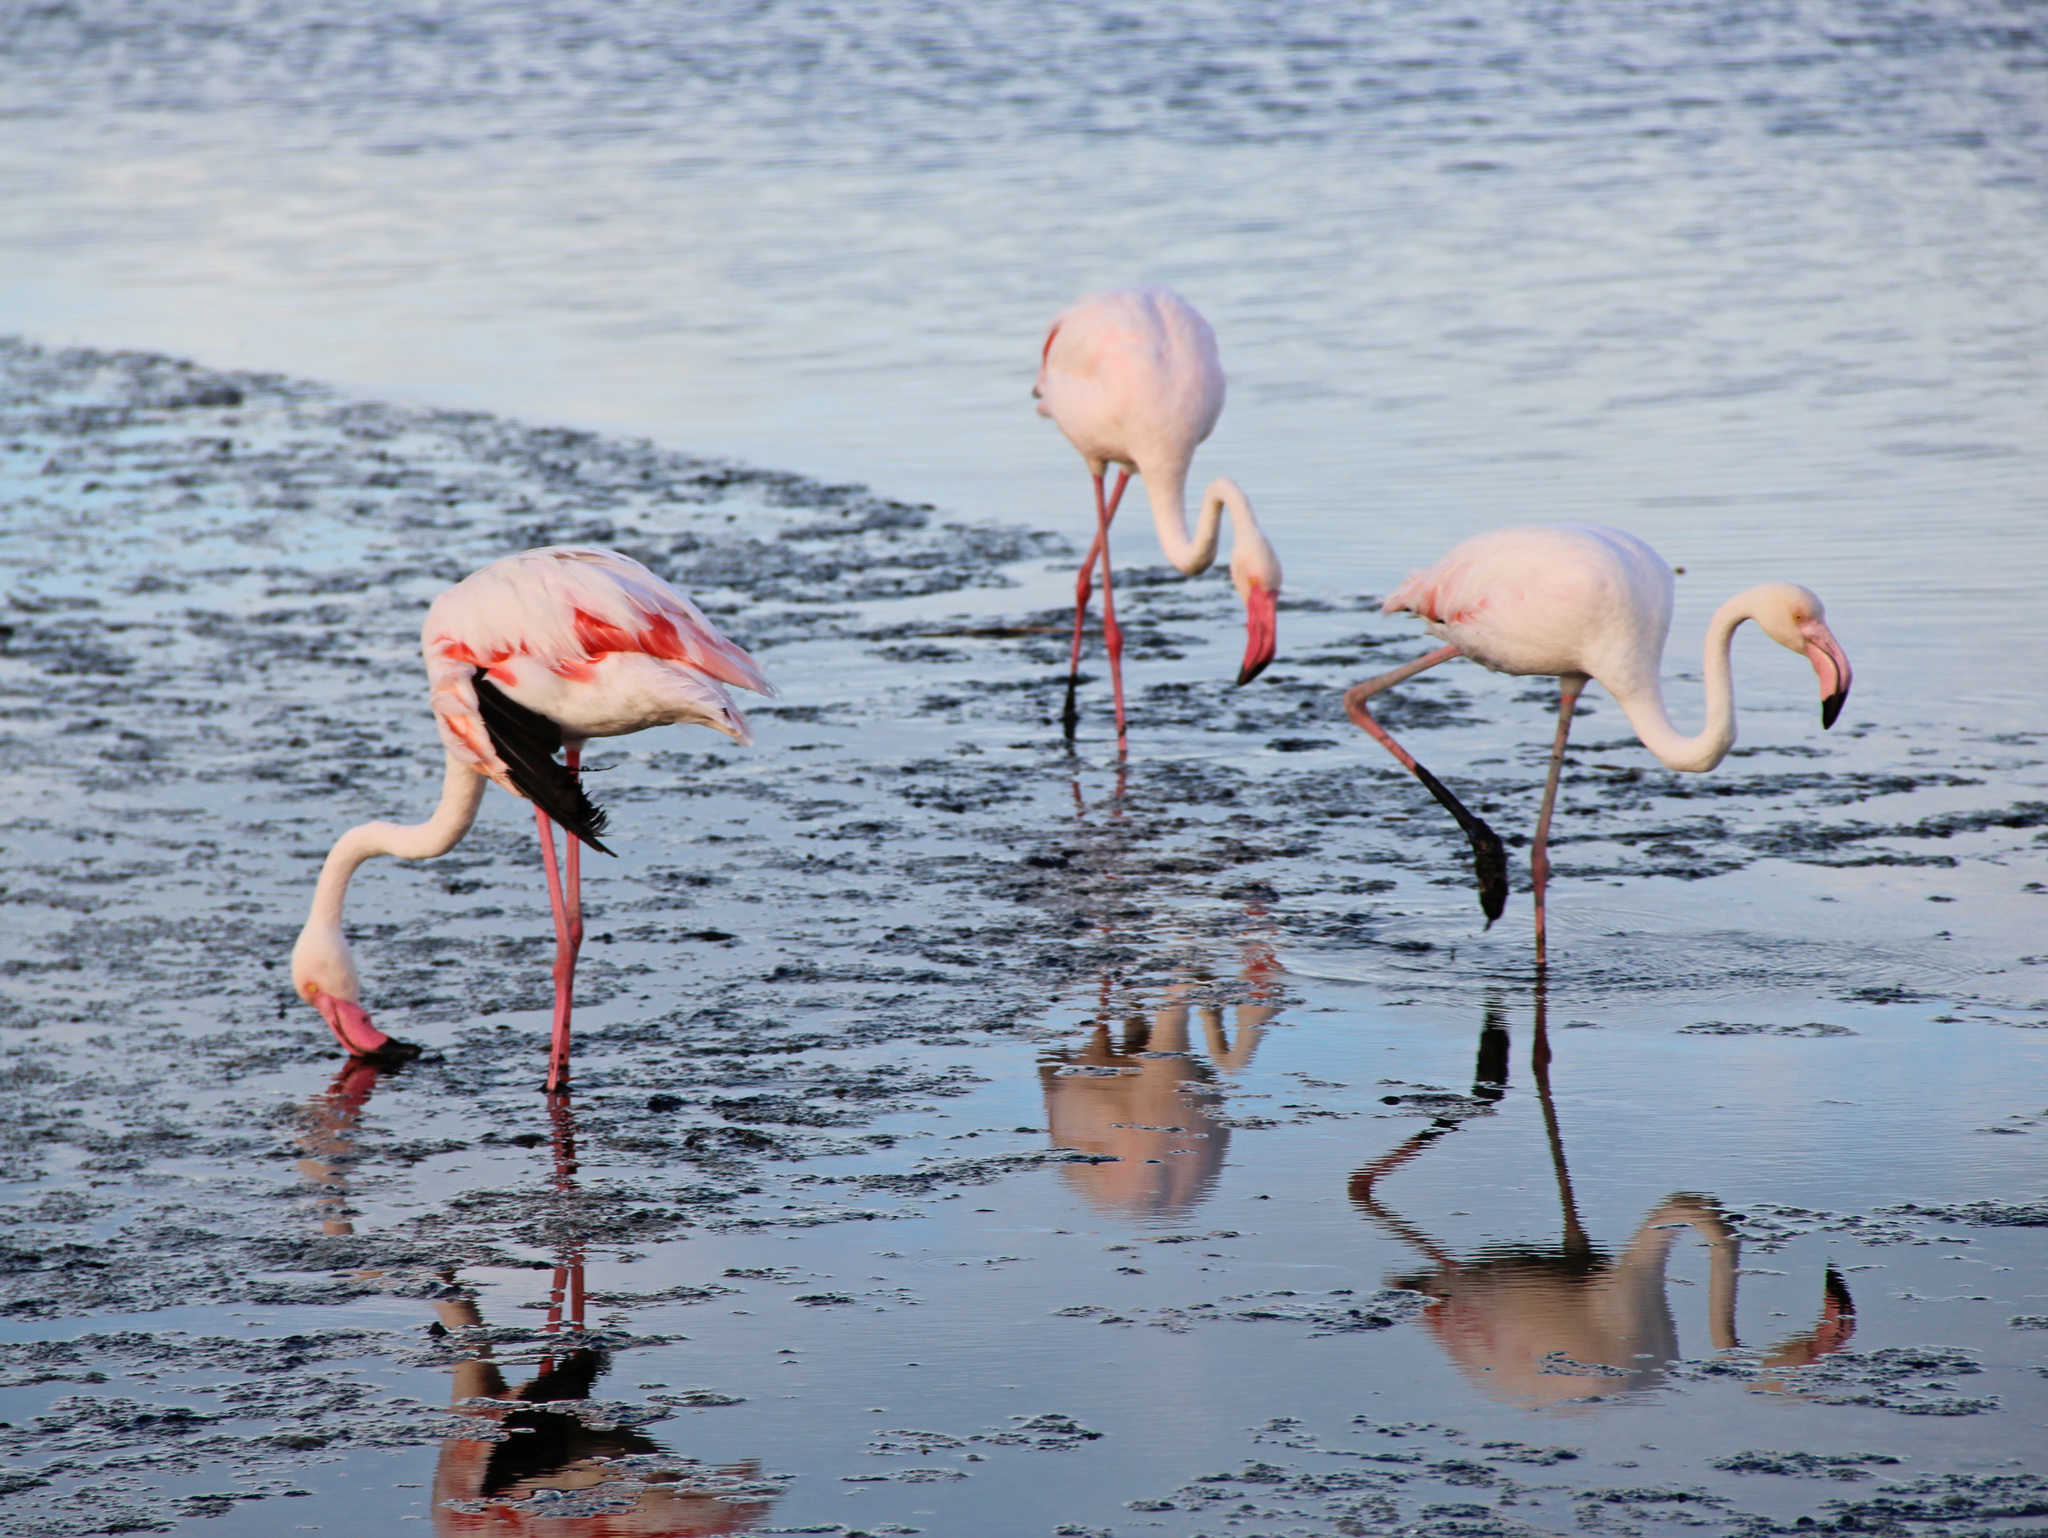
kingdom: Animalia
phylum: Chordata
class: Aves
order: Phoenicopteriformes
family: Phoenicopteridae
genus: Phoenicopterus
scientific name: Phoenicopterus roseus
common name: Greater flamingo
